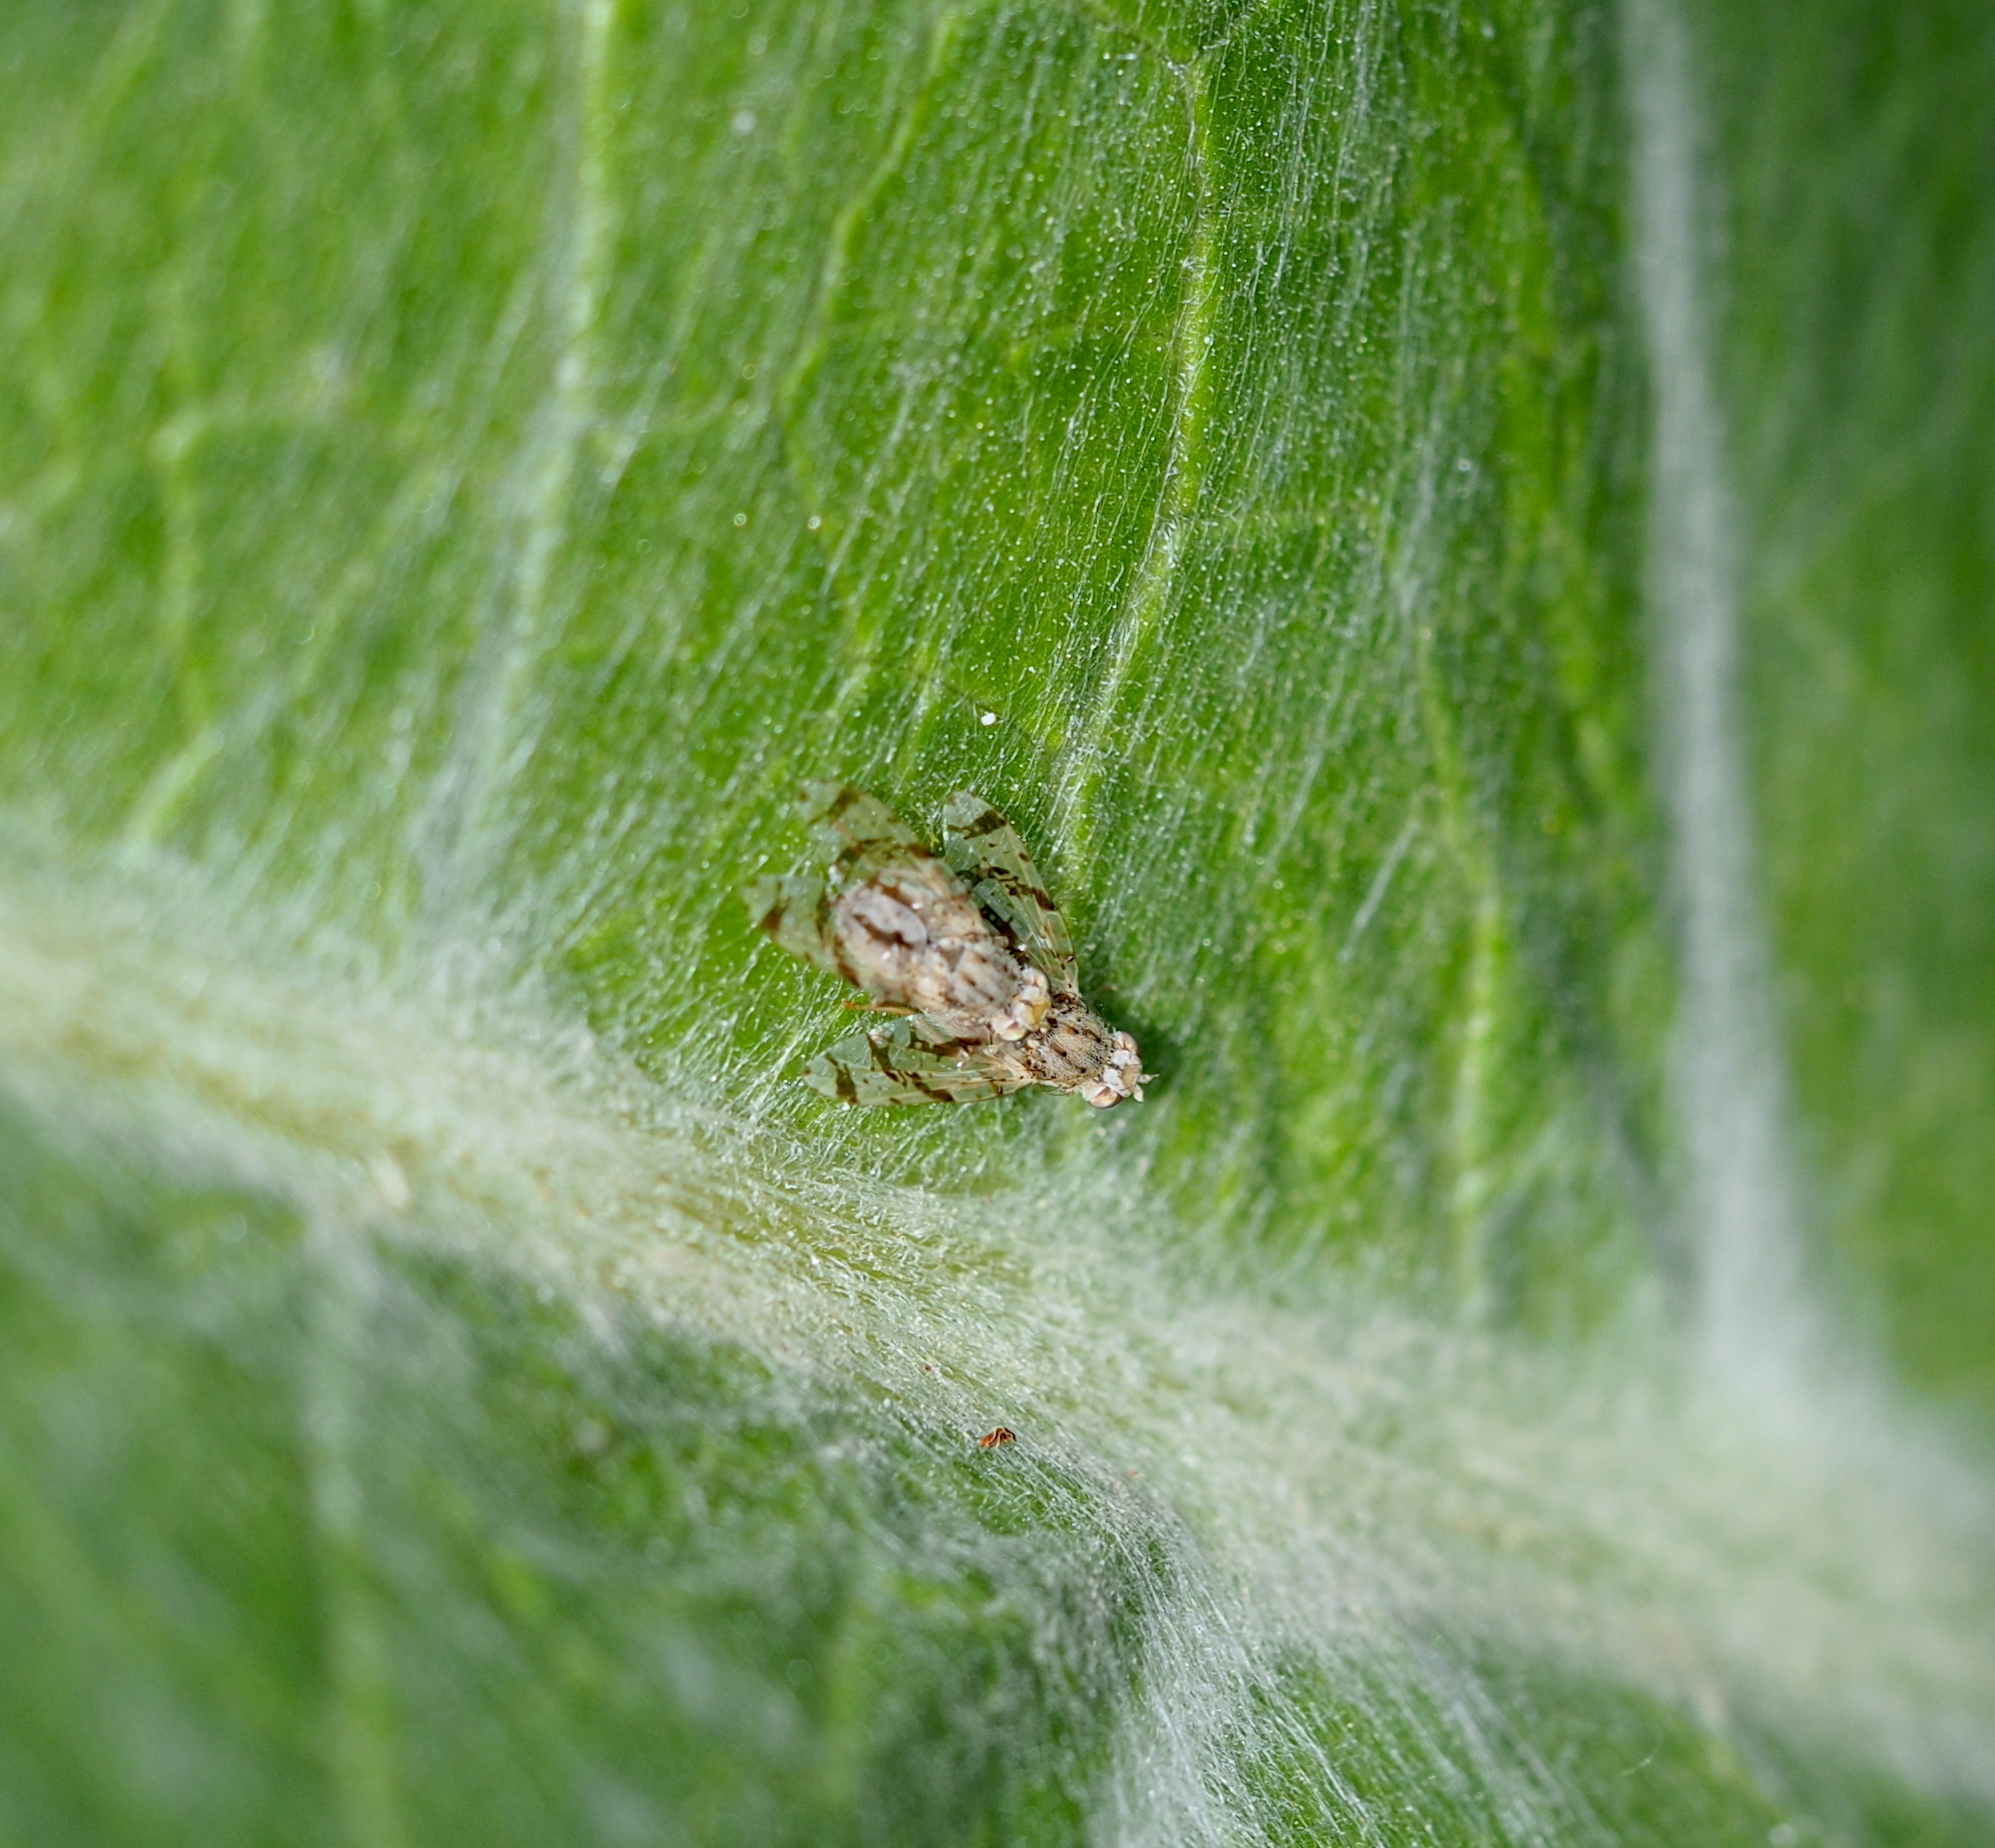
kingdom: Animalia
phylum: Arthropoda
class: Insecta
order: Diptera
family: Tephritidae
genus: Tephritis
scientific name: Tephritis postica
